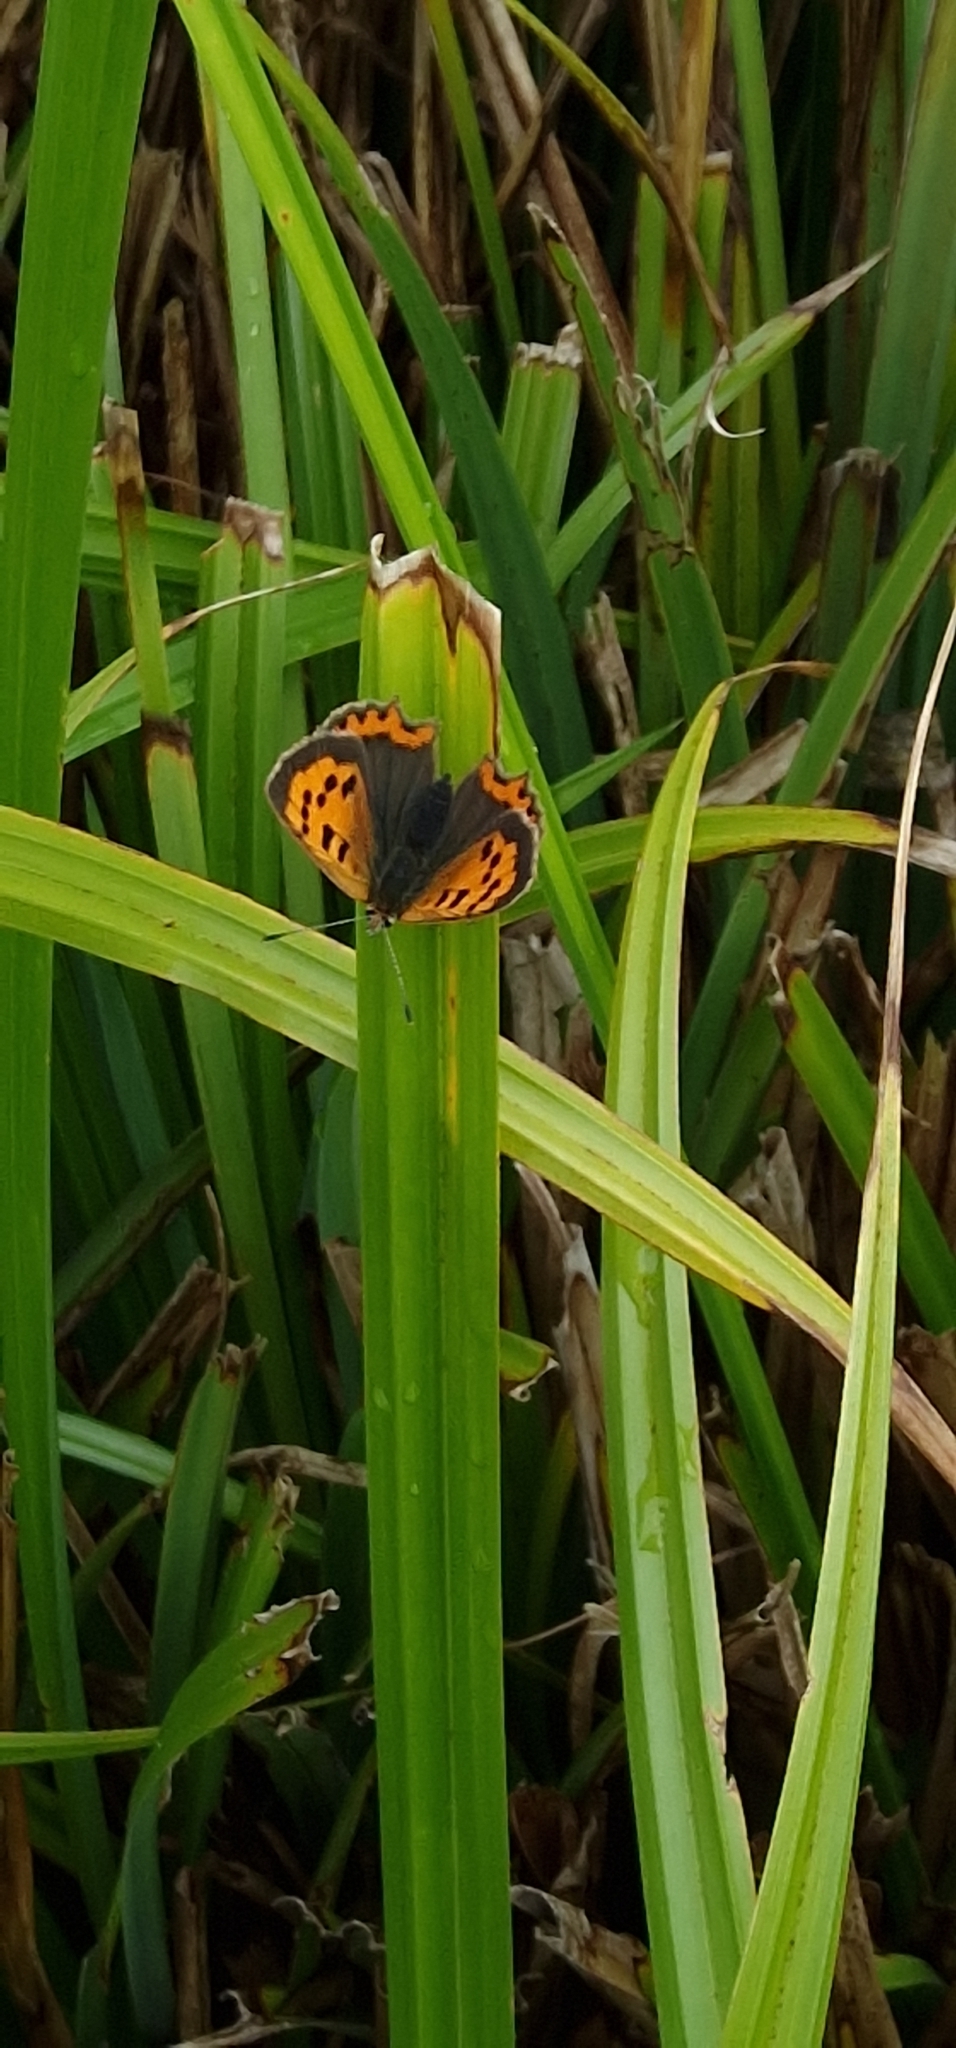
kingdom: Animalia
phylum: Arthropoda
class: Insecta
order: Lepidoptera
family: Lycaenidae
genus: Lycaena
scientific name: Lycaena phlaeas
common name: Small copper
